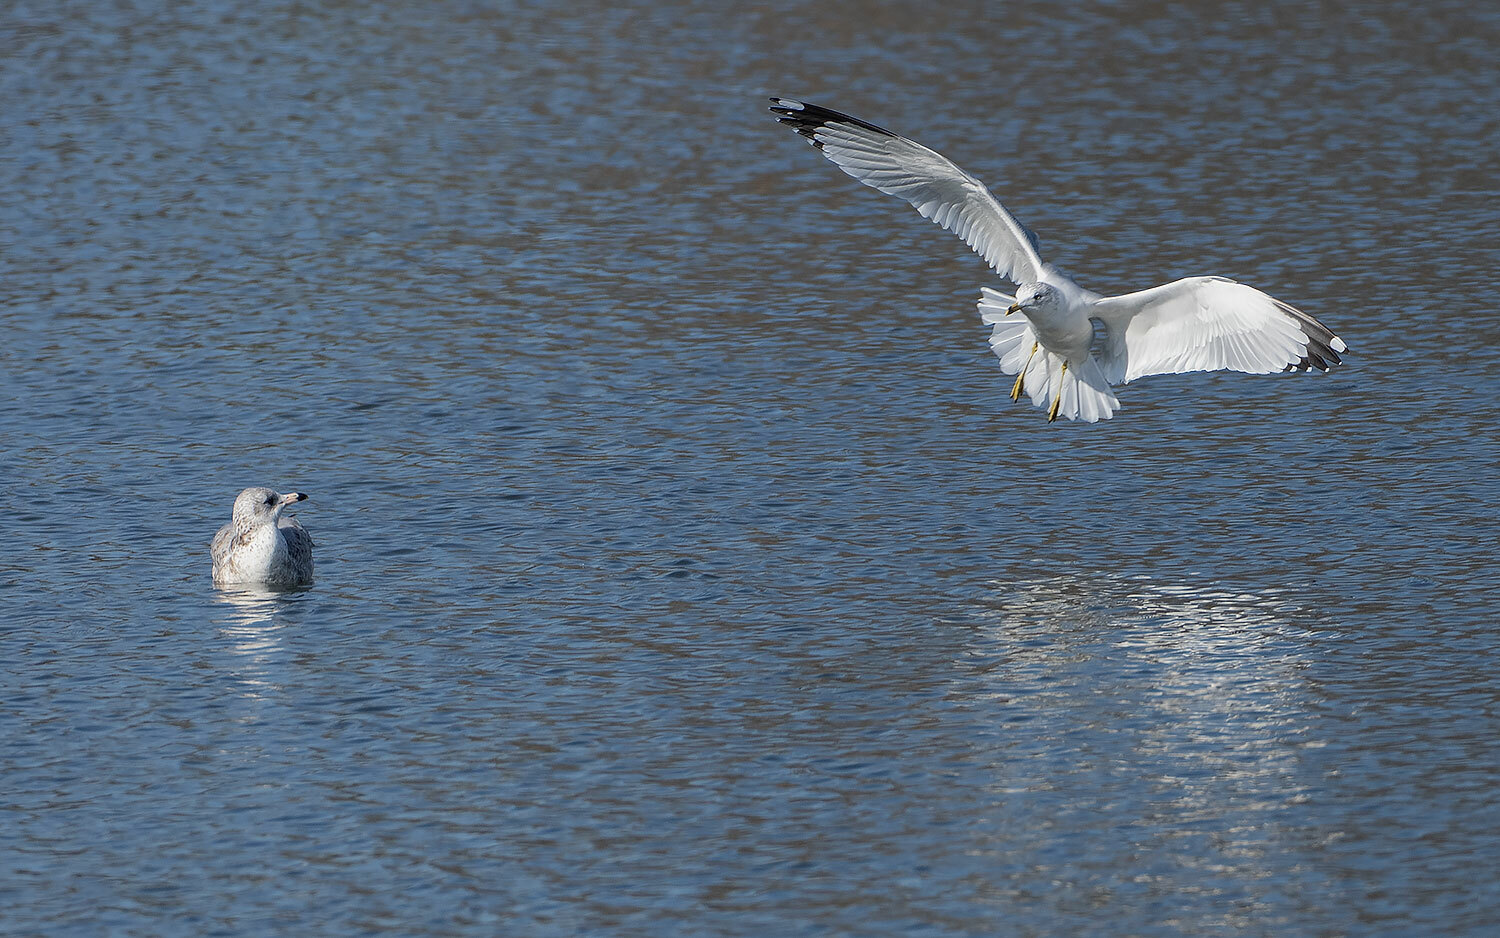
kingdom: Animalia
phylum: Chordata
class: Aves
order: Charadriiformes
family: Laridae
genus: Larus
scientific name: Larus delawarensis
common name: Ring-billed gull
